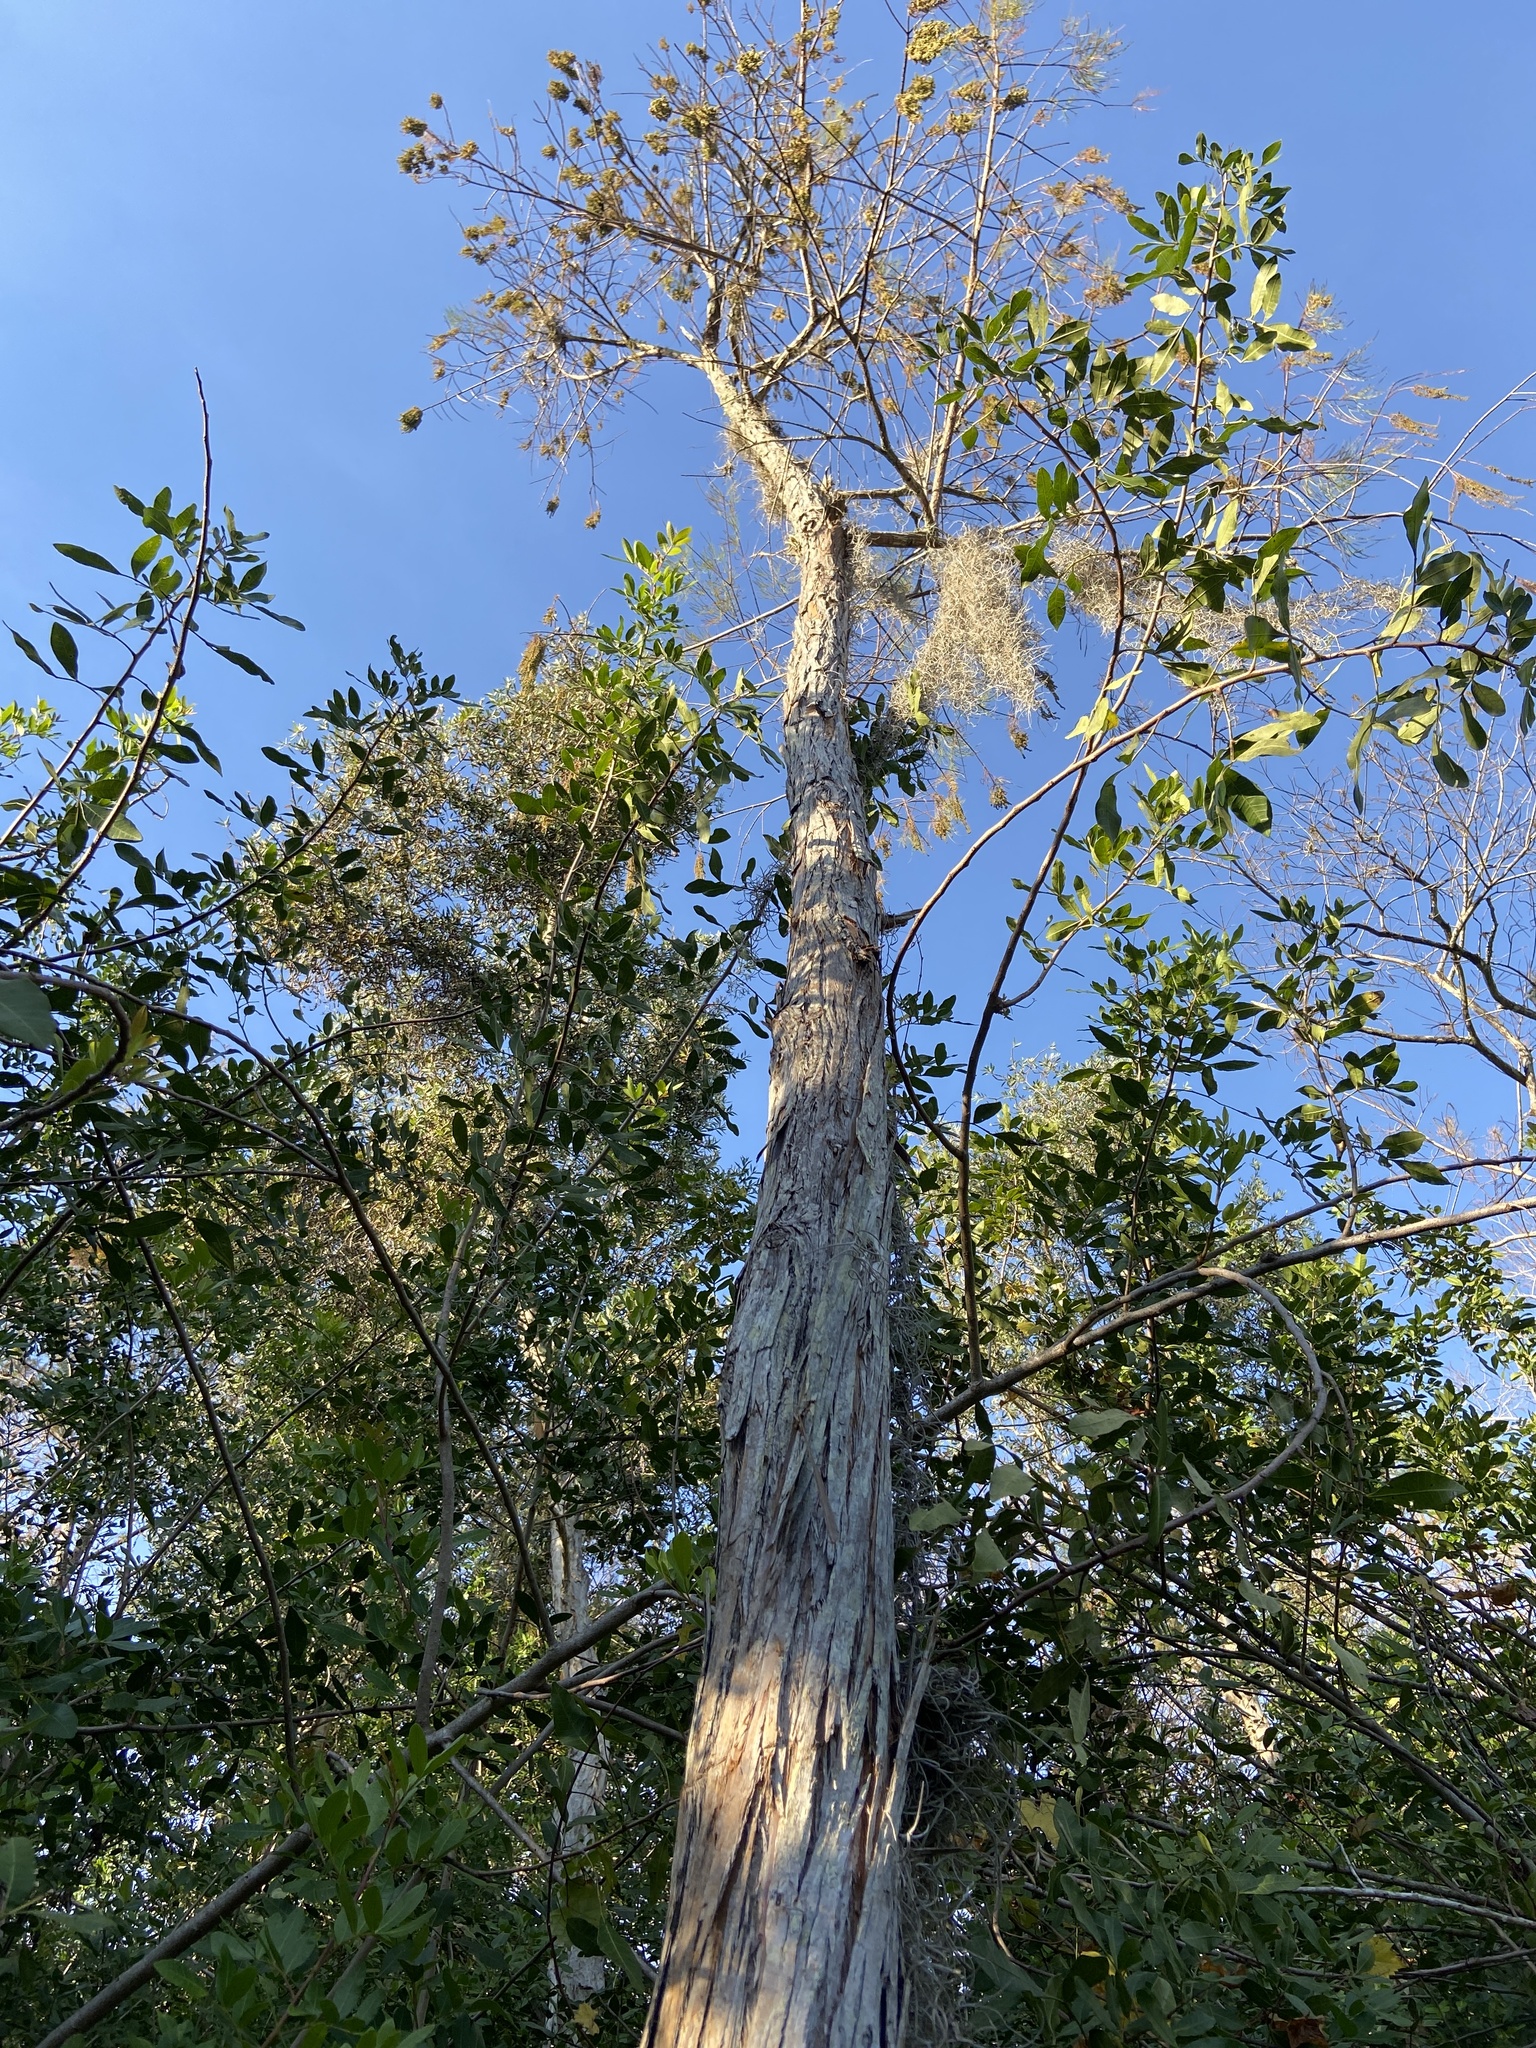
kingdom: Plantae
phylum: Tracheophyta
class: Pinopsida
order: Pinales
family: Cupressaceae
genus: Taxodium
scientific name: Taxodium distichum
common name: Bald cypress
